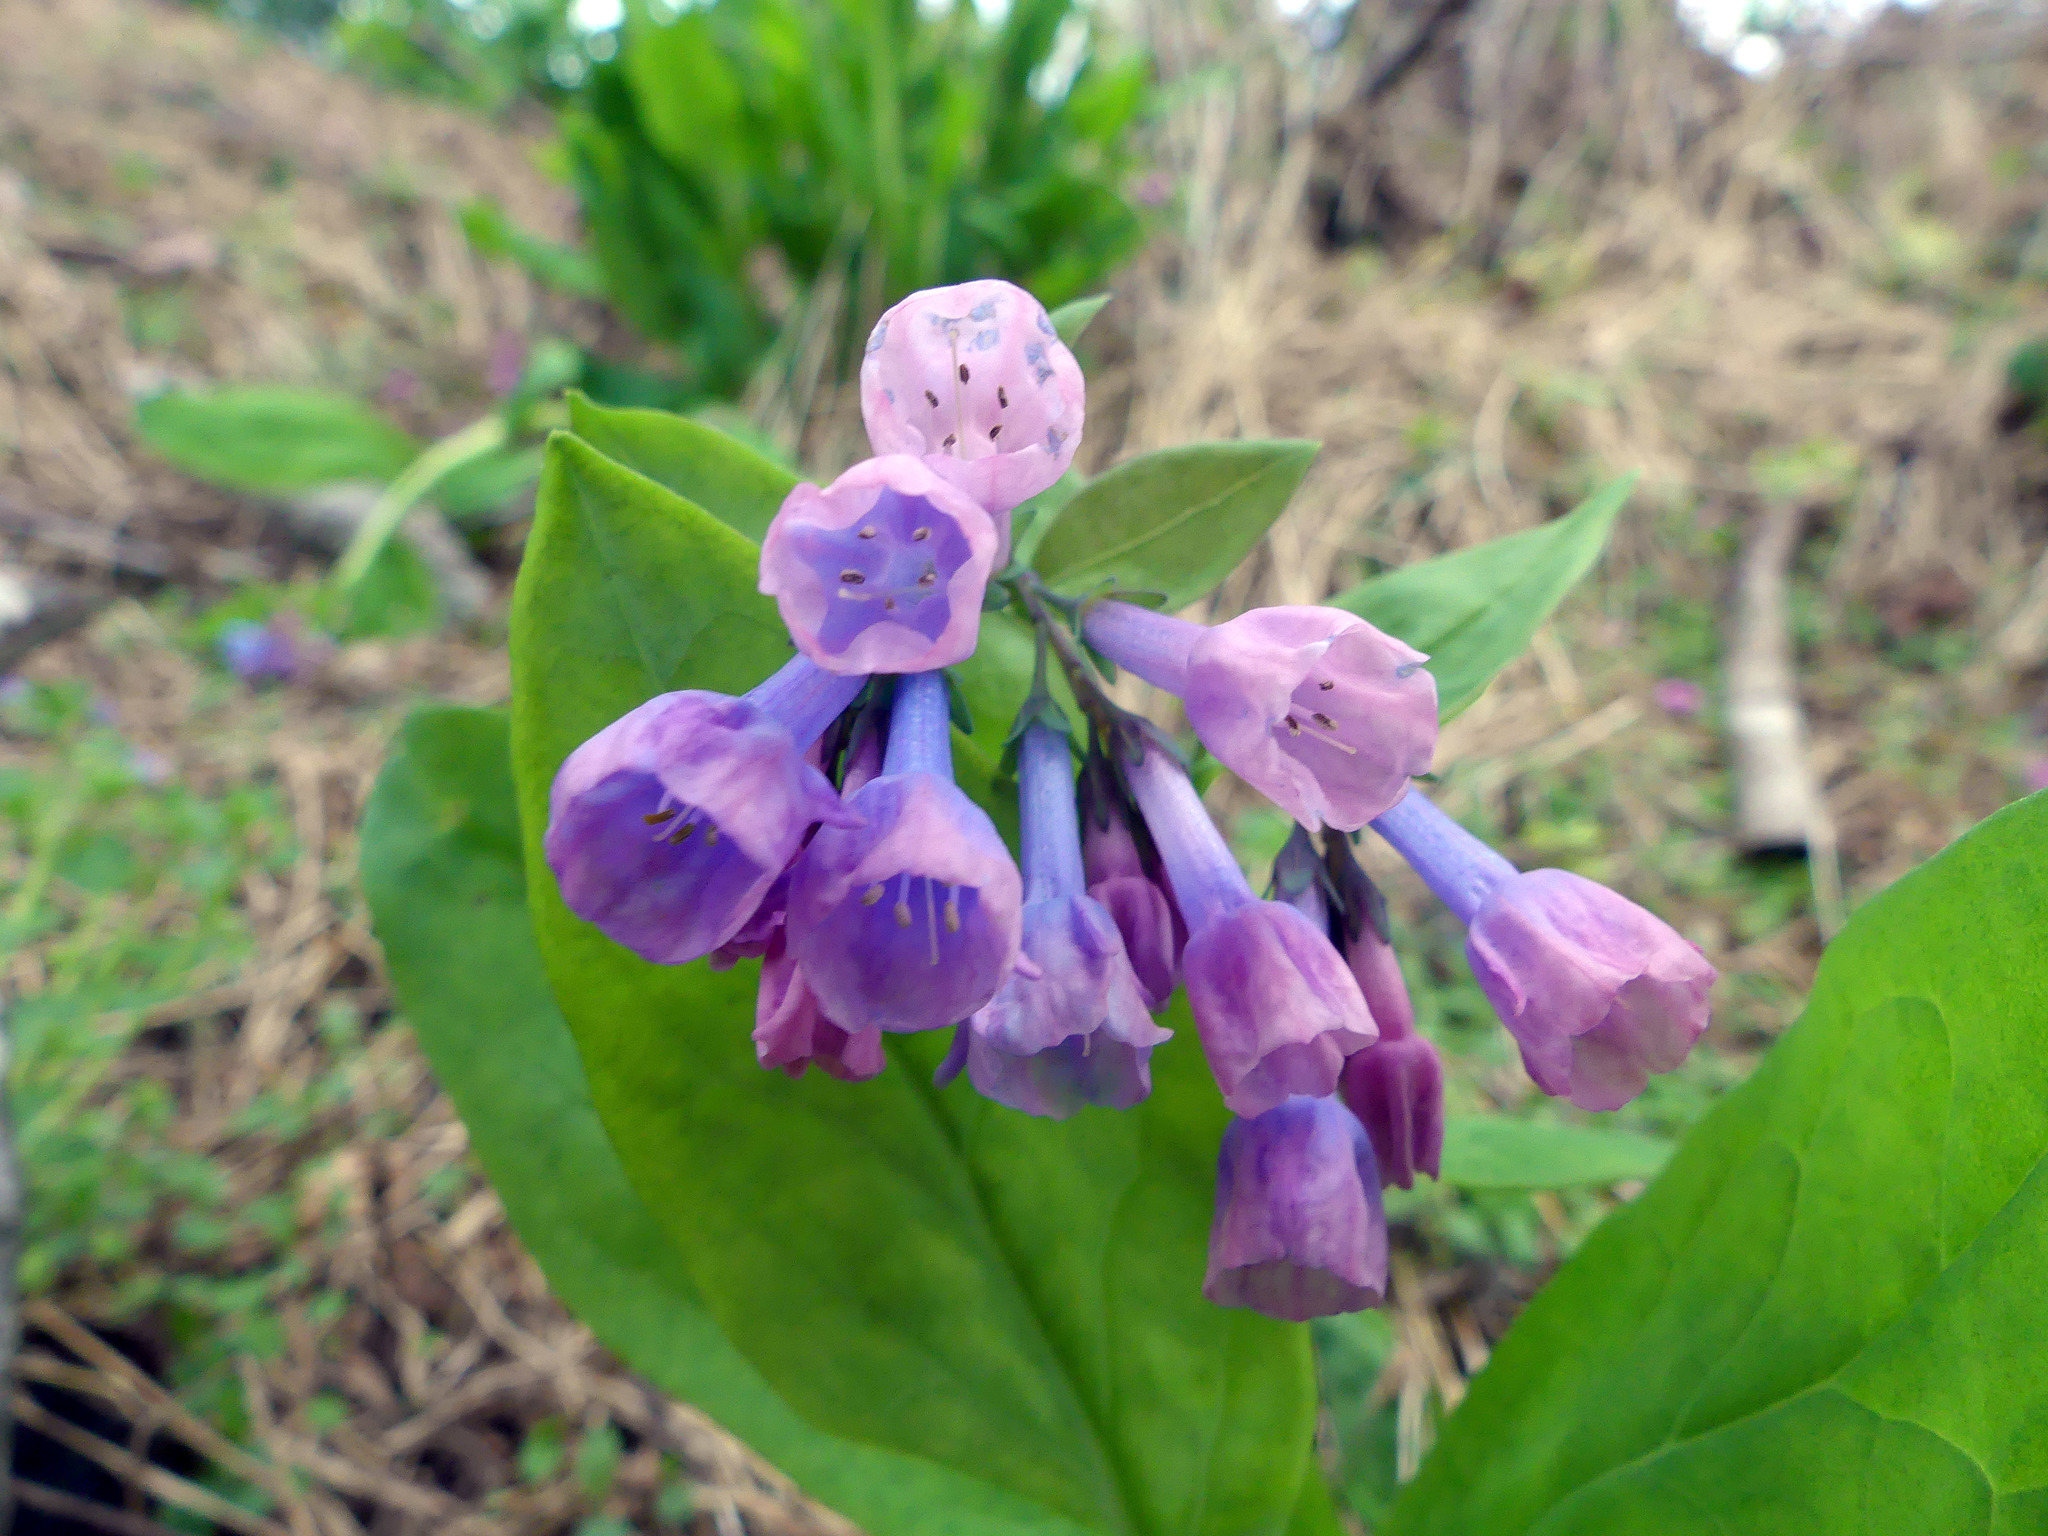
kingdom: Plantae
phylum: Tracheophyta
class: Magnoliopsida
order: Boraginales
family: Boraginaceae
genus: Mertensia
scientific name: Mertensia virginica
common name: Virginia bluebells
